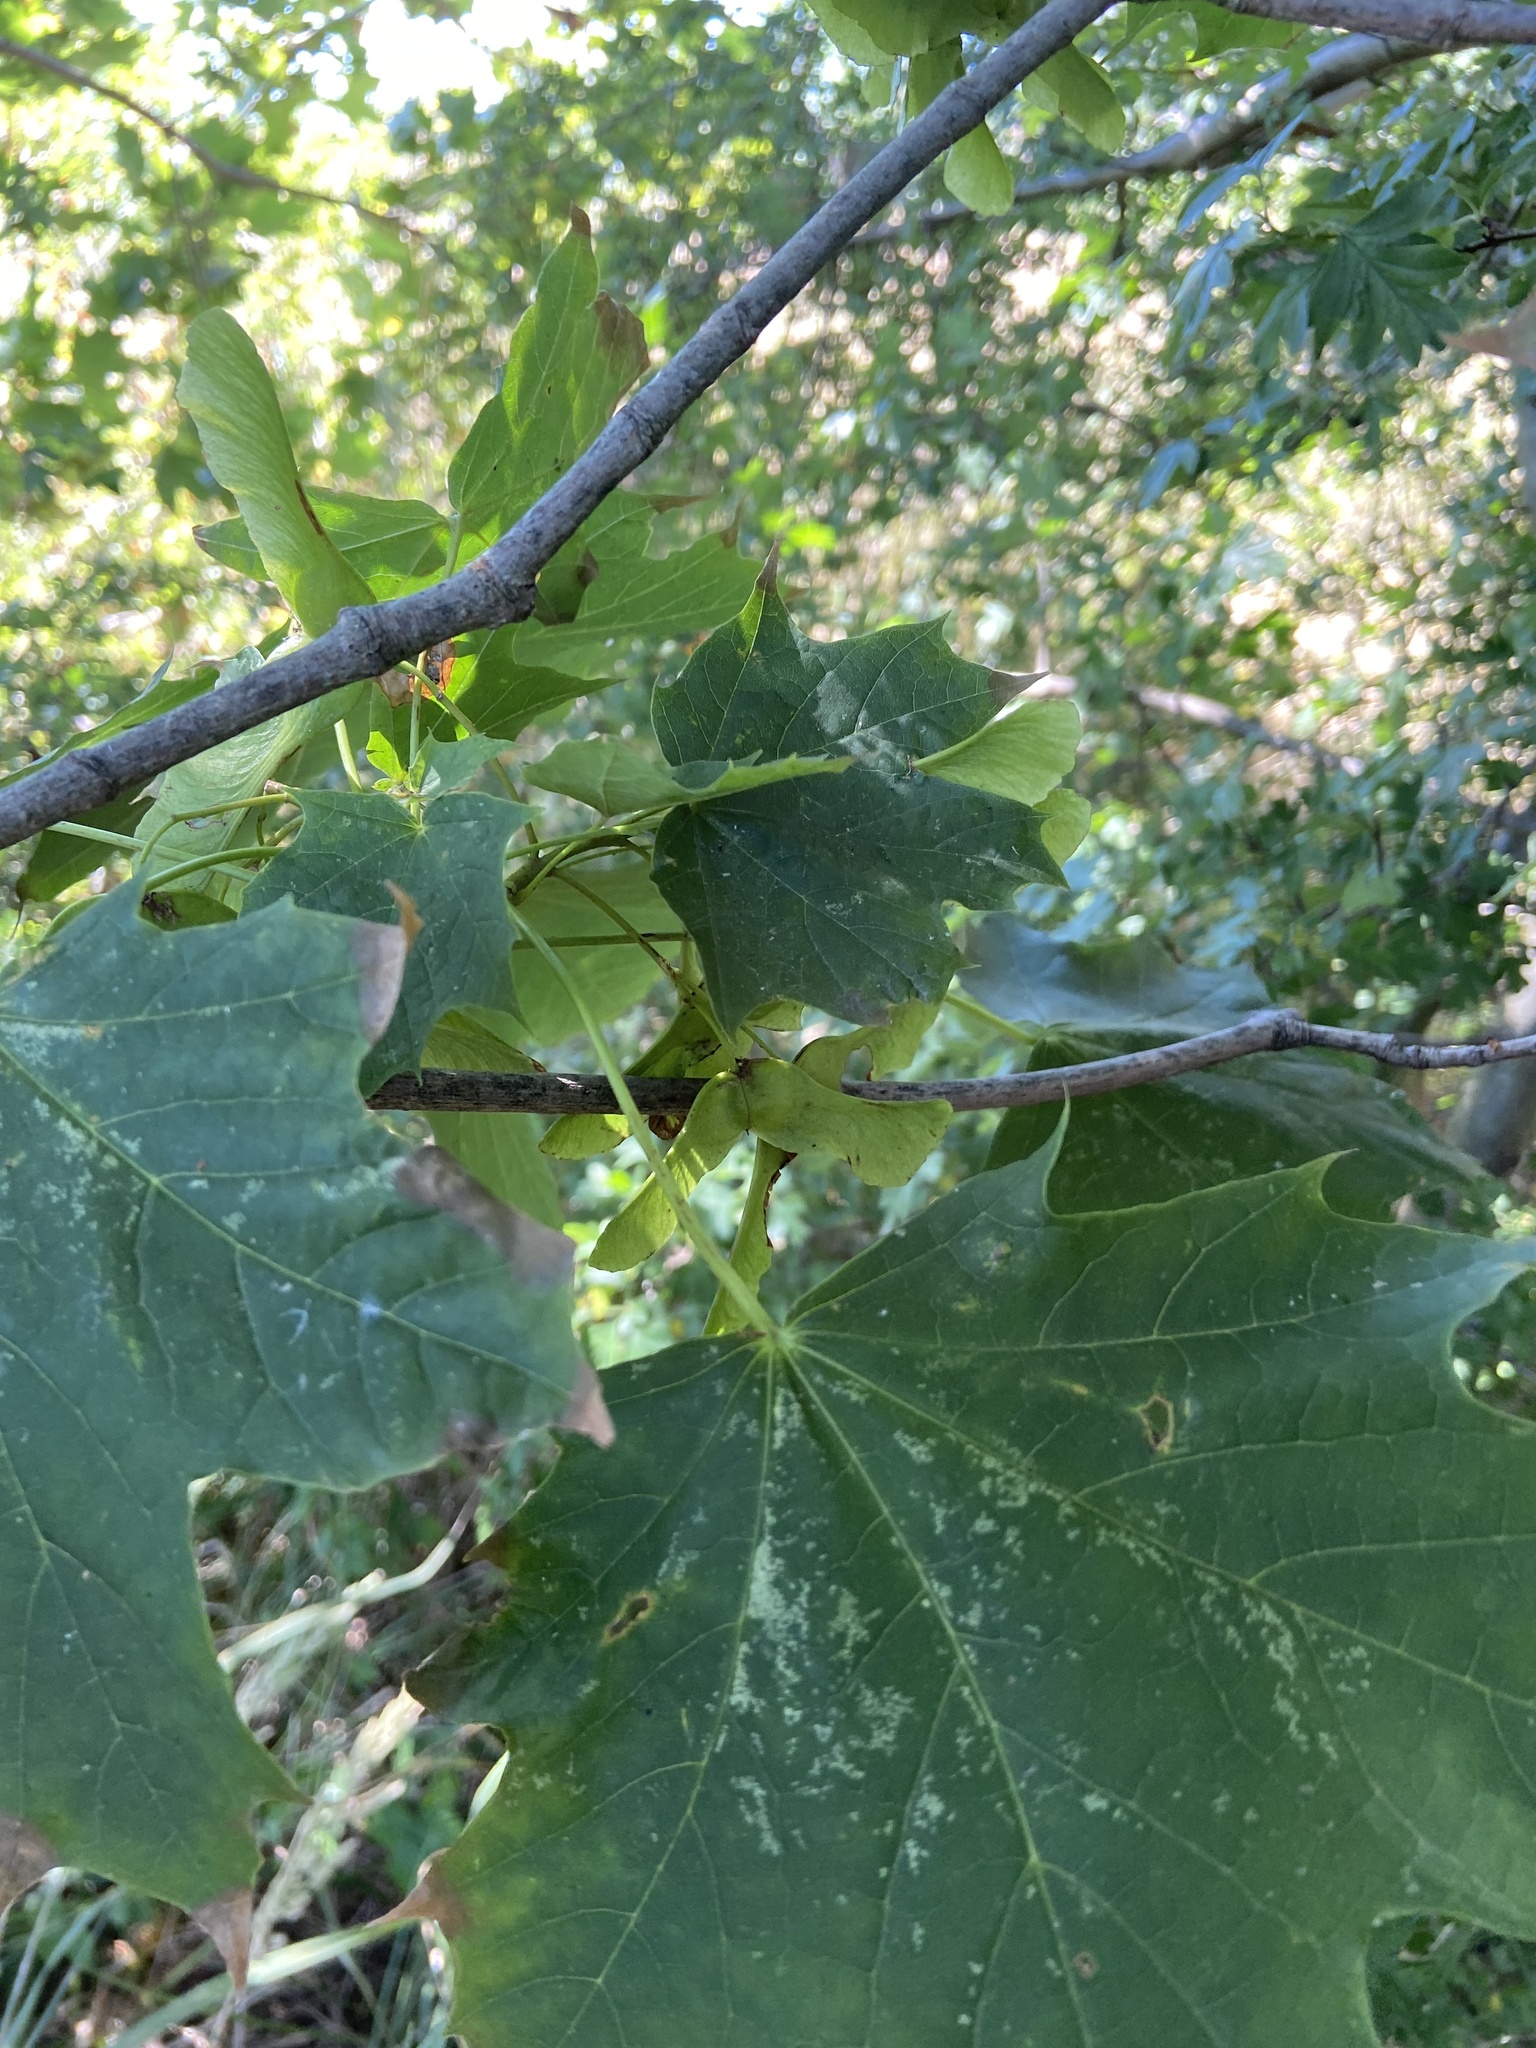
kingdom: Plantae
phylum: Tracheophyta
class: Magnoliopsida
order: Sapindales
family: Sapindaceae
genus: Acer
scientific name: Acer platanoides
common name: Norway maple
